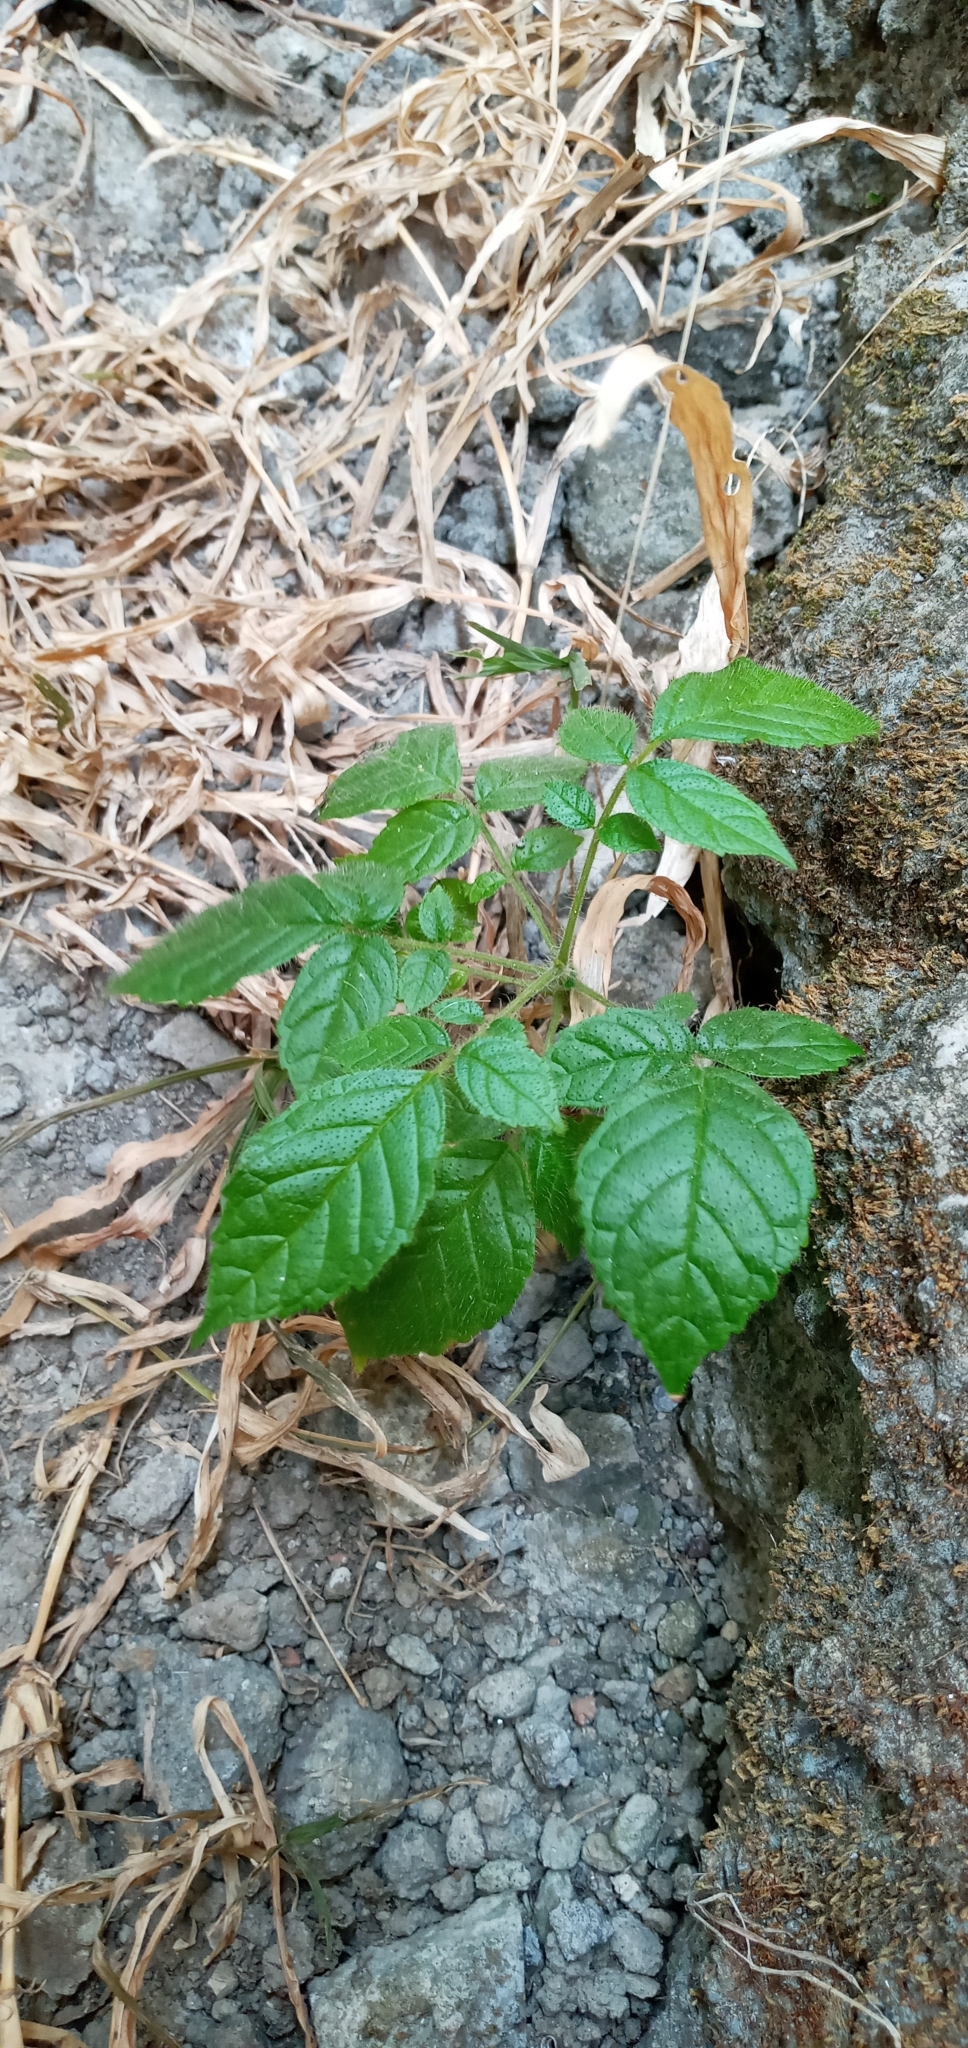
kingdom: Plantae
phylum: Tracheophyta
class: Magnoliopsida
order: Lamiales
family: Bignoniaceae
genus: Spathodea
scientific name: Spathodea campanulata
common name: African tuliptree
